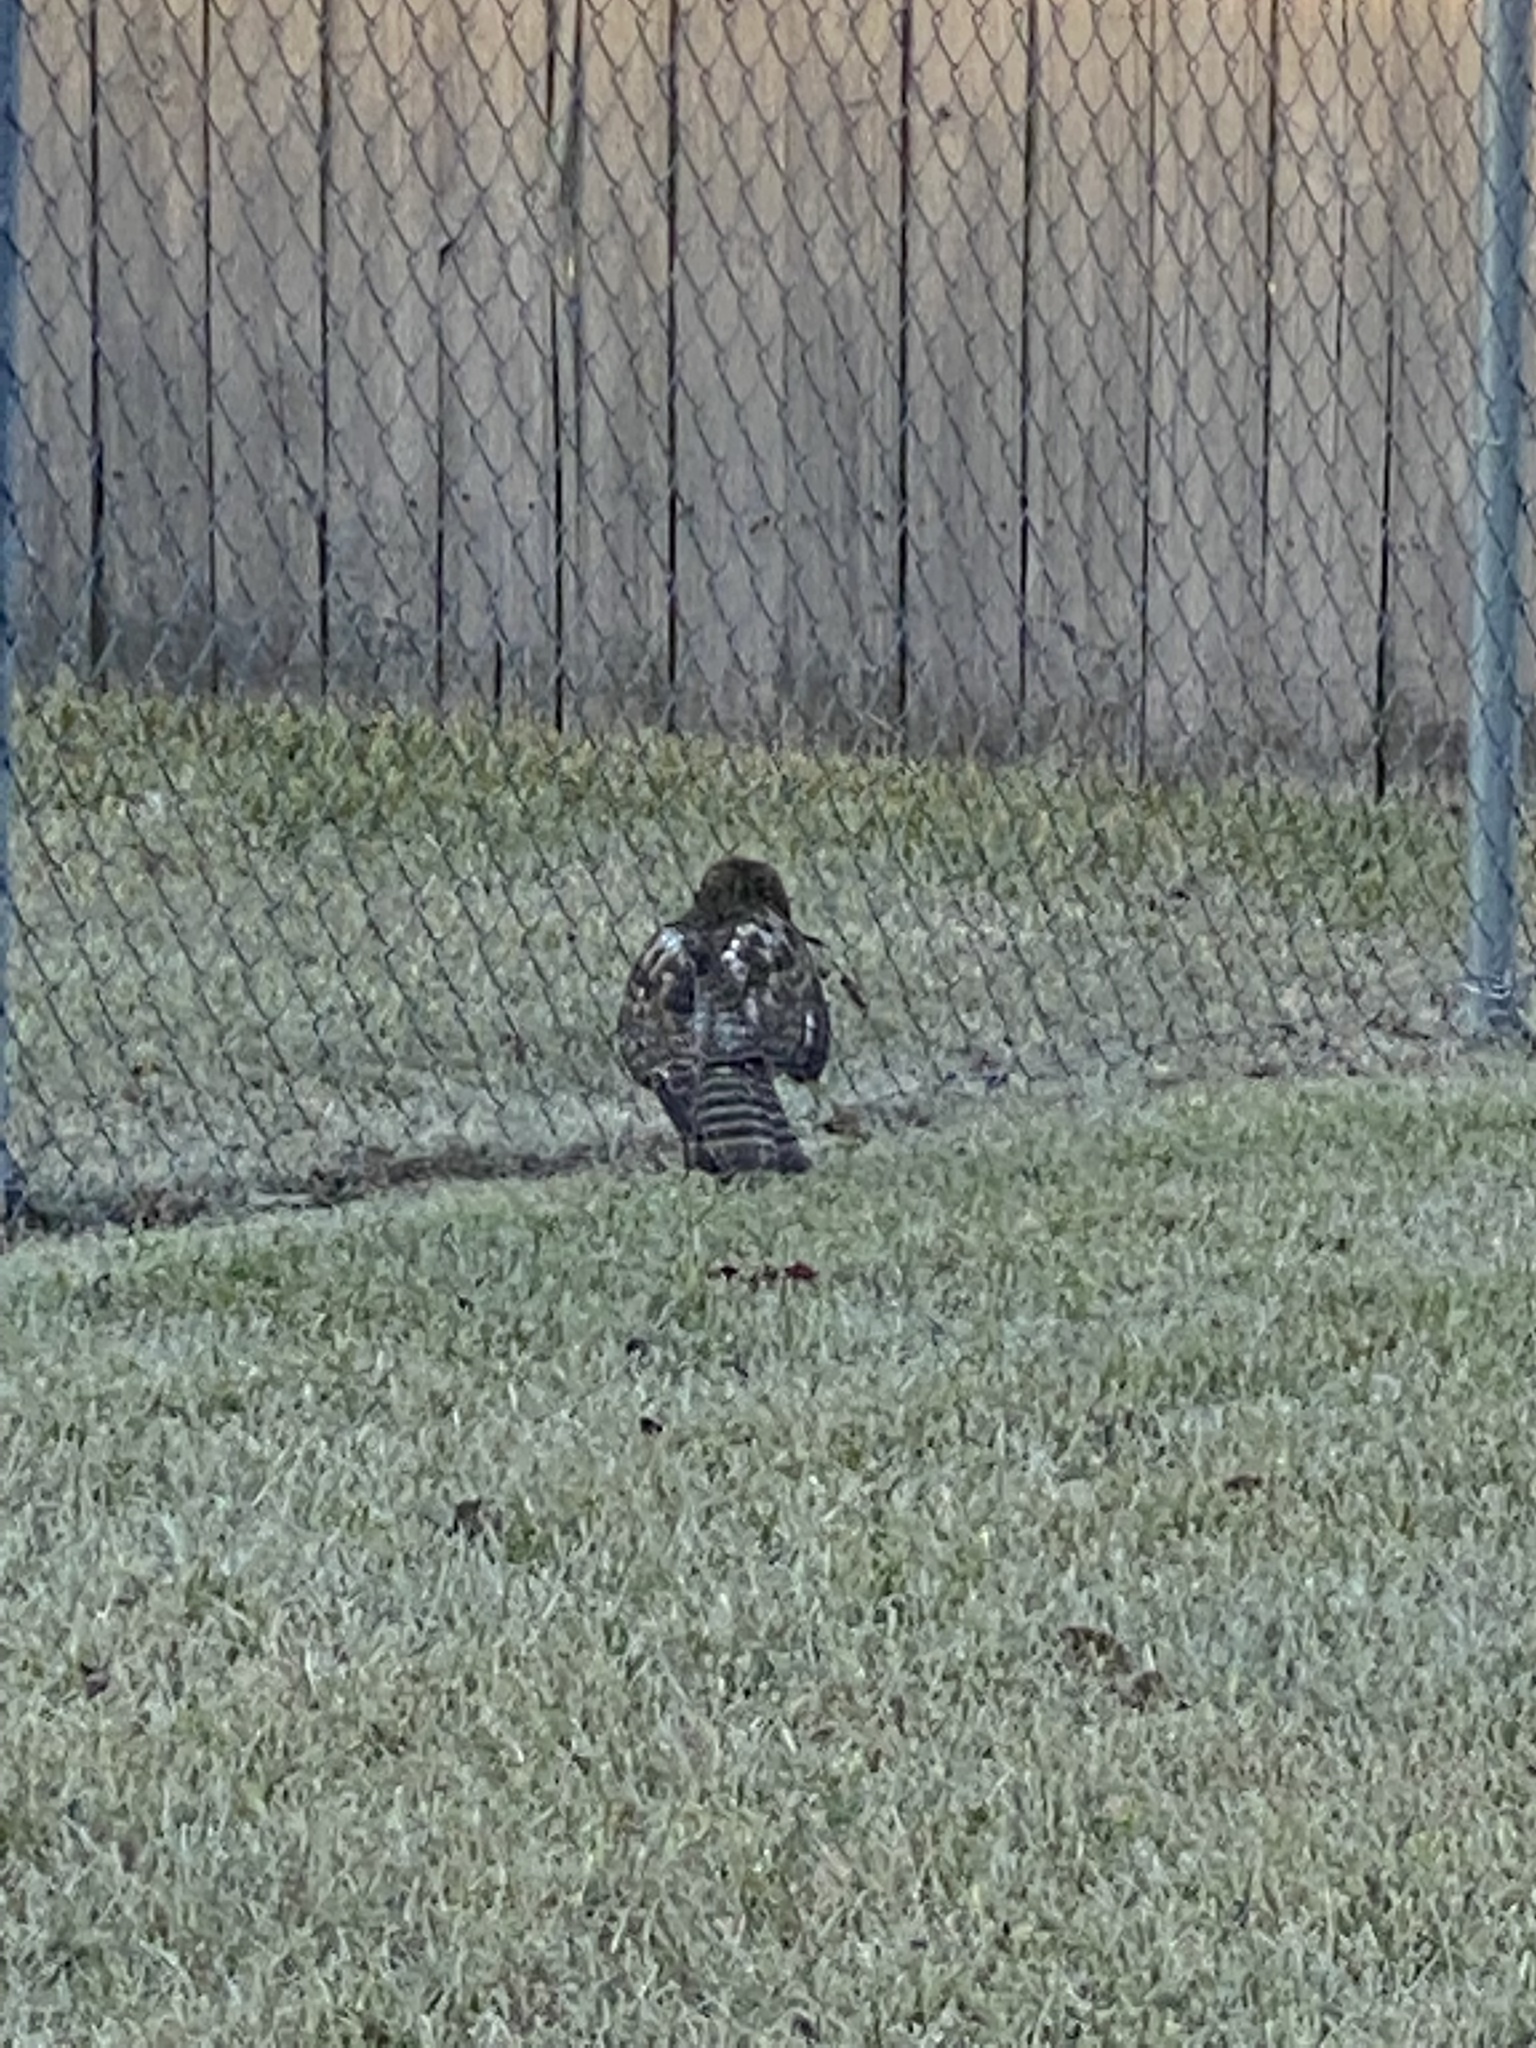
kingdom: Animalia
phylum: Chordata
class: Aves
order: Accipitriformes
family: Accipitridae
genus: Buteo
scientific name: Buteo lineatus
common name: Red-shouldered hawk
